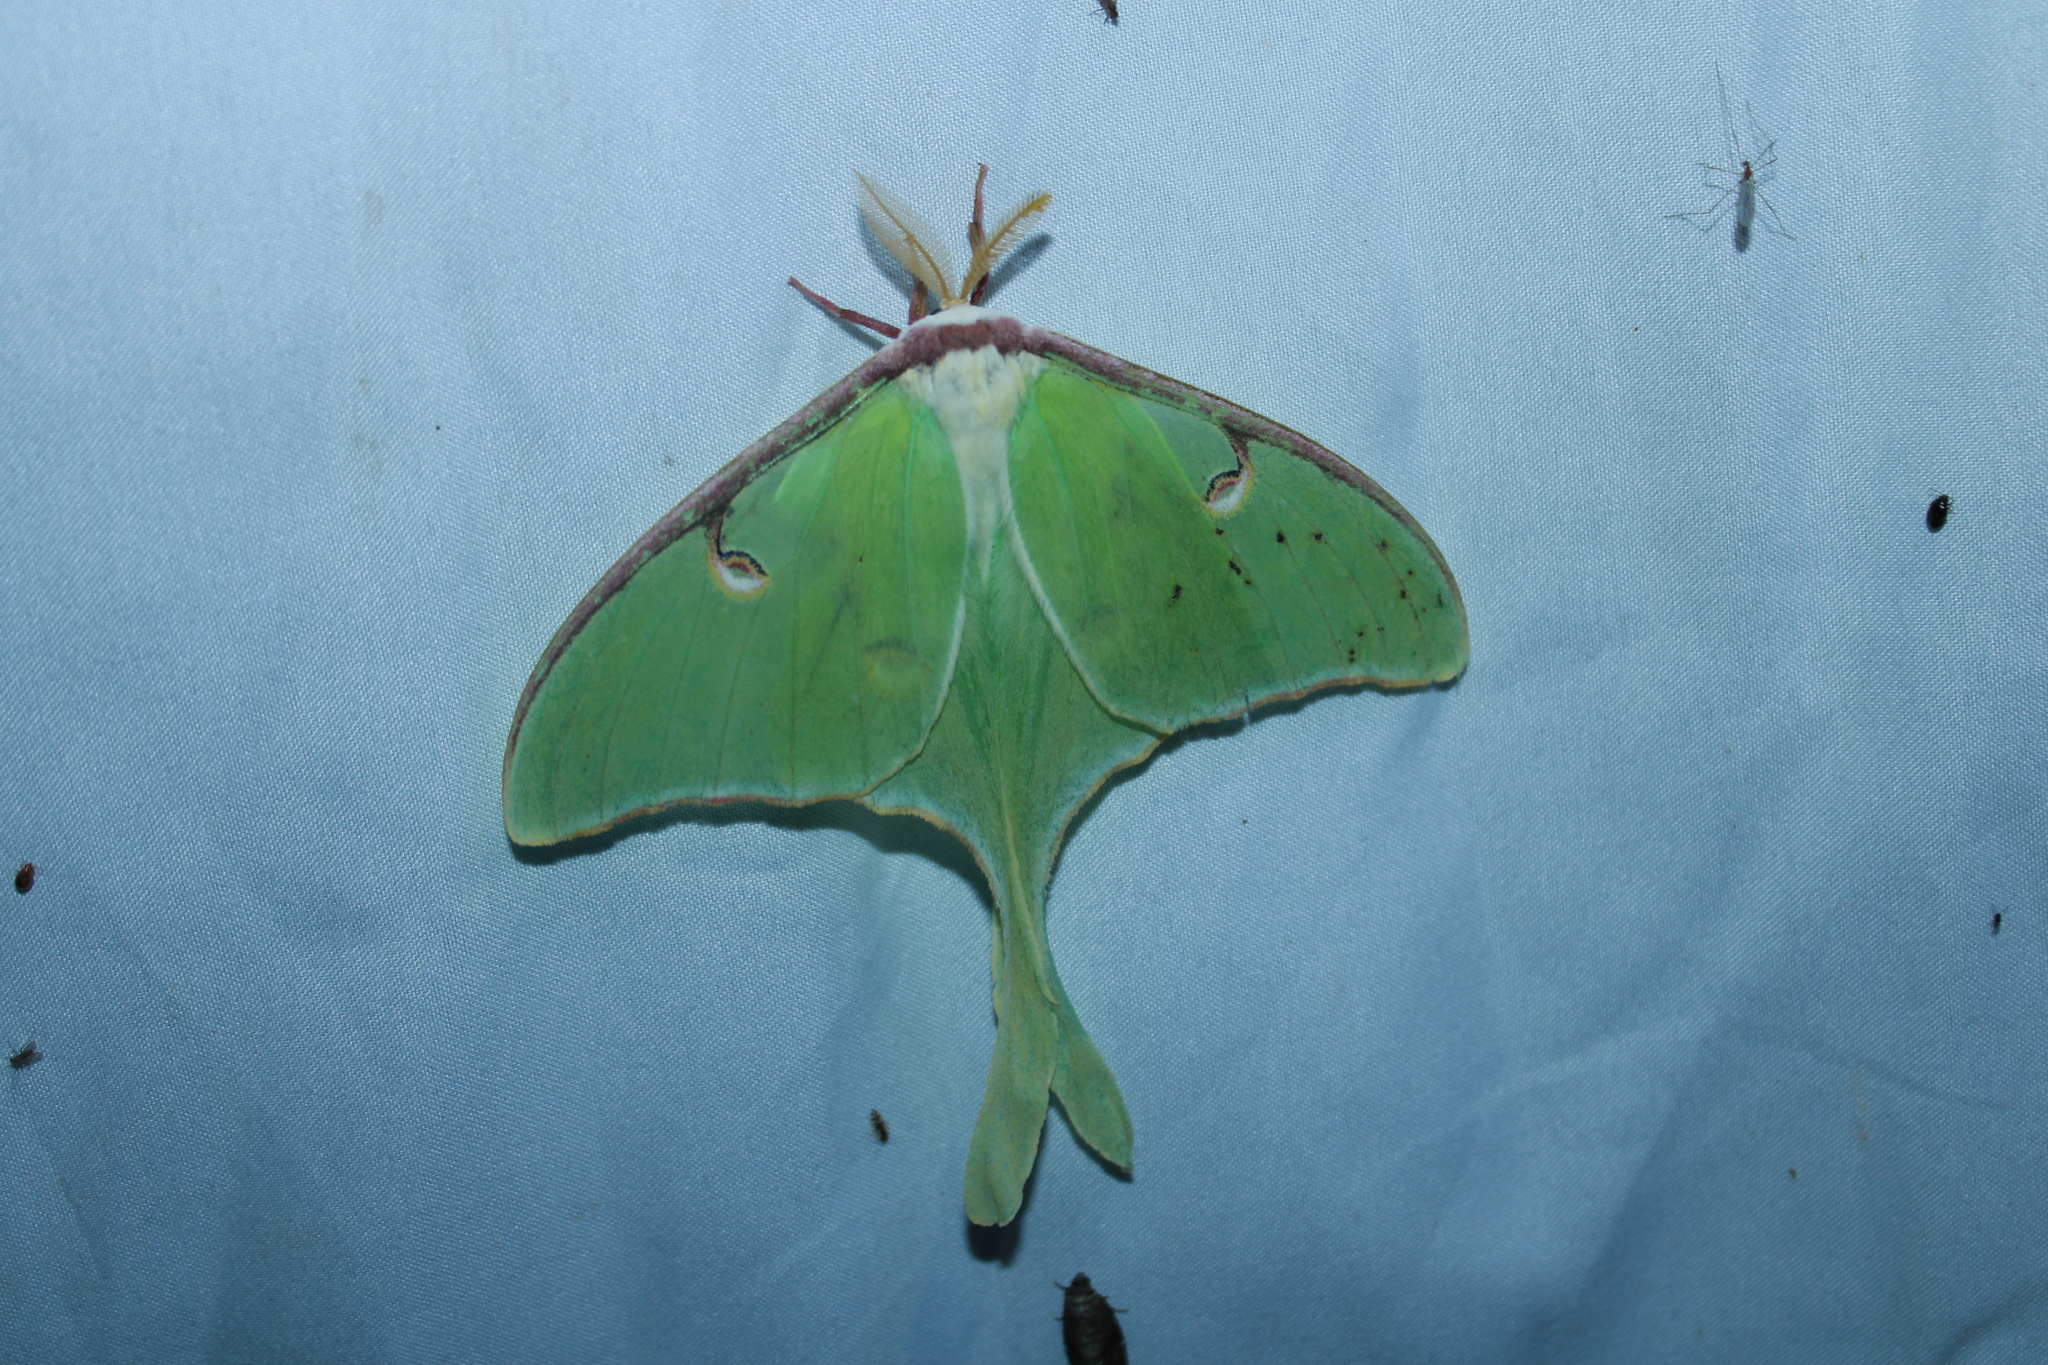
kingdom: Animalia
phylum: Arthropoda
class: Insecta
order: Lepidoptera
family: Saturniidae
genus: Actias
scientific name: Actias luna
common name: Luna moth
